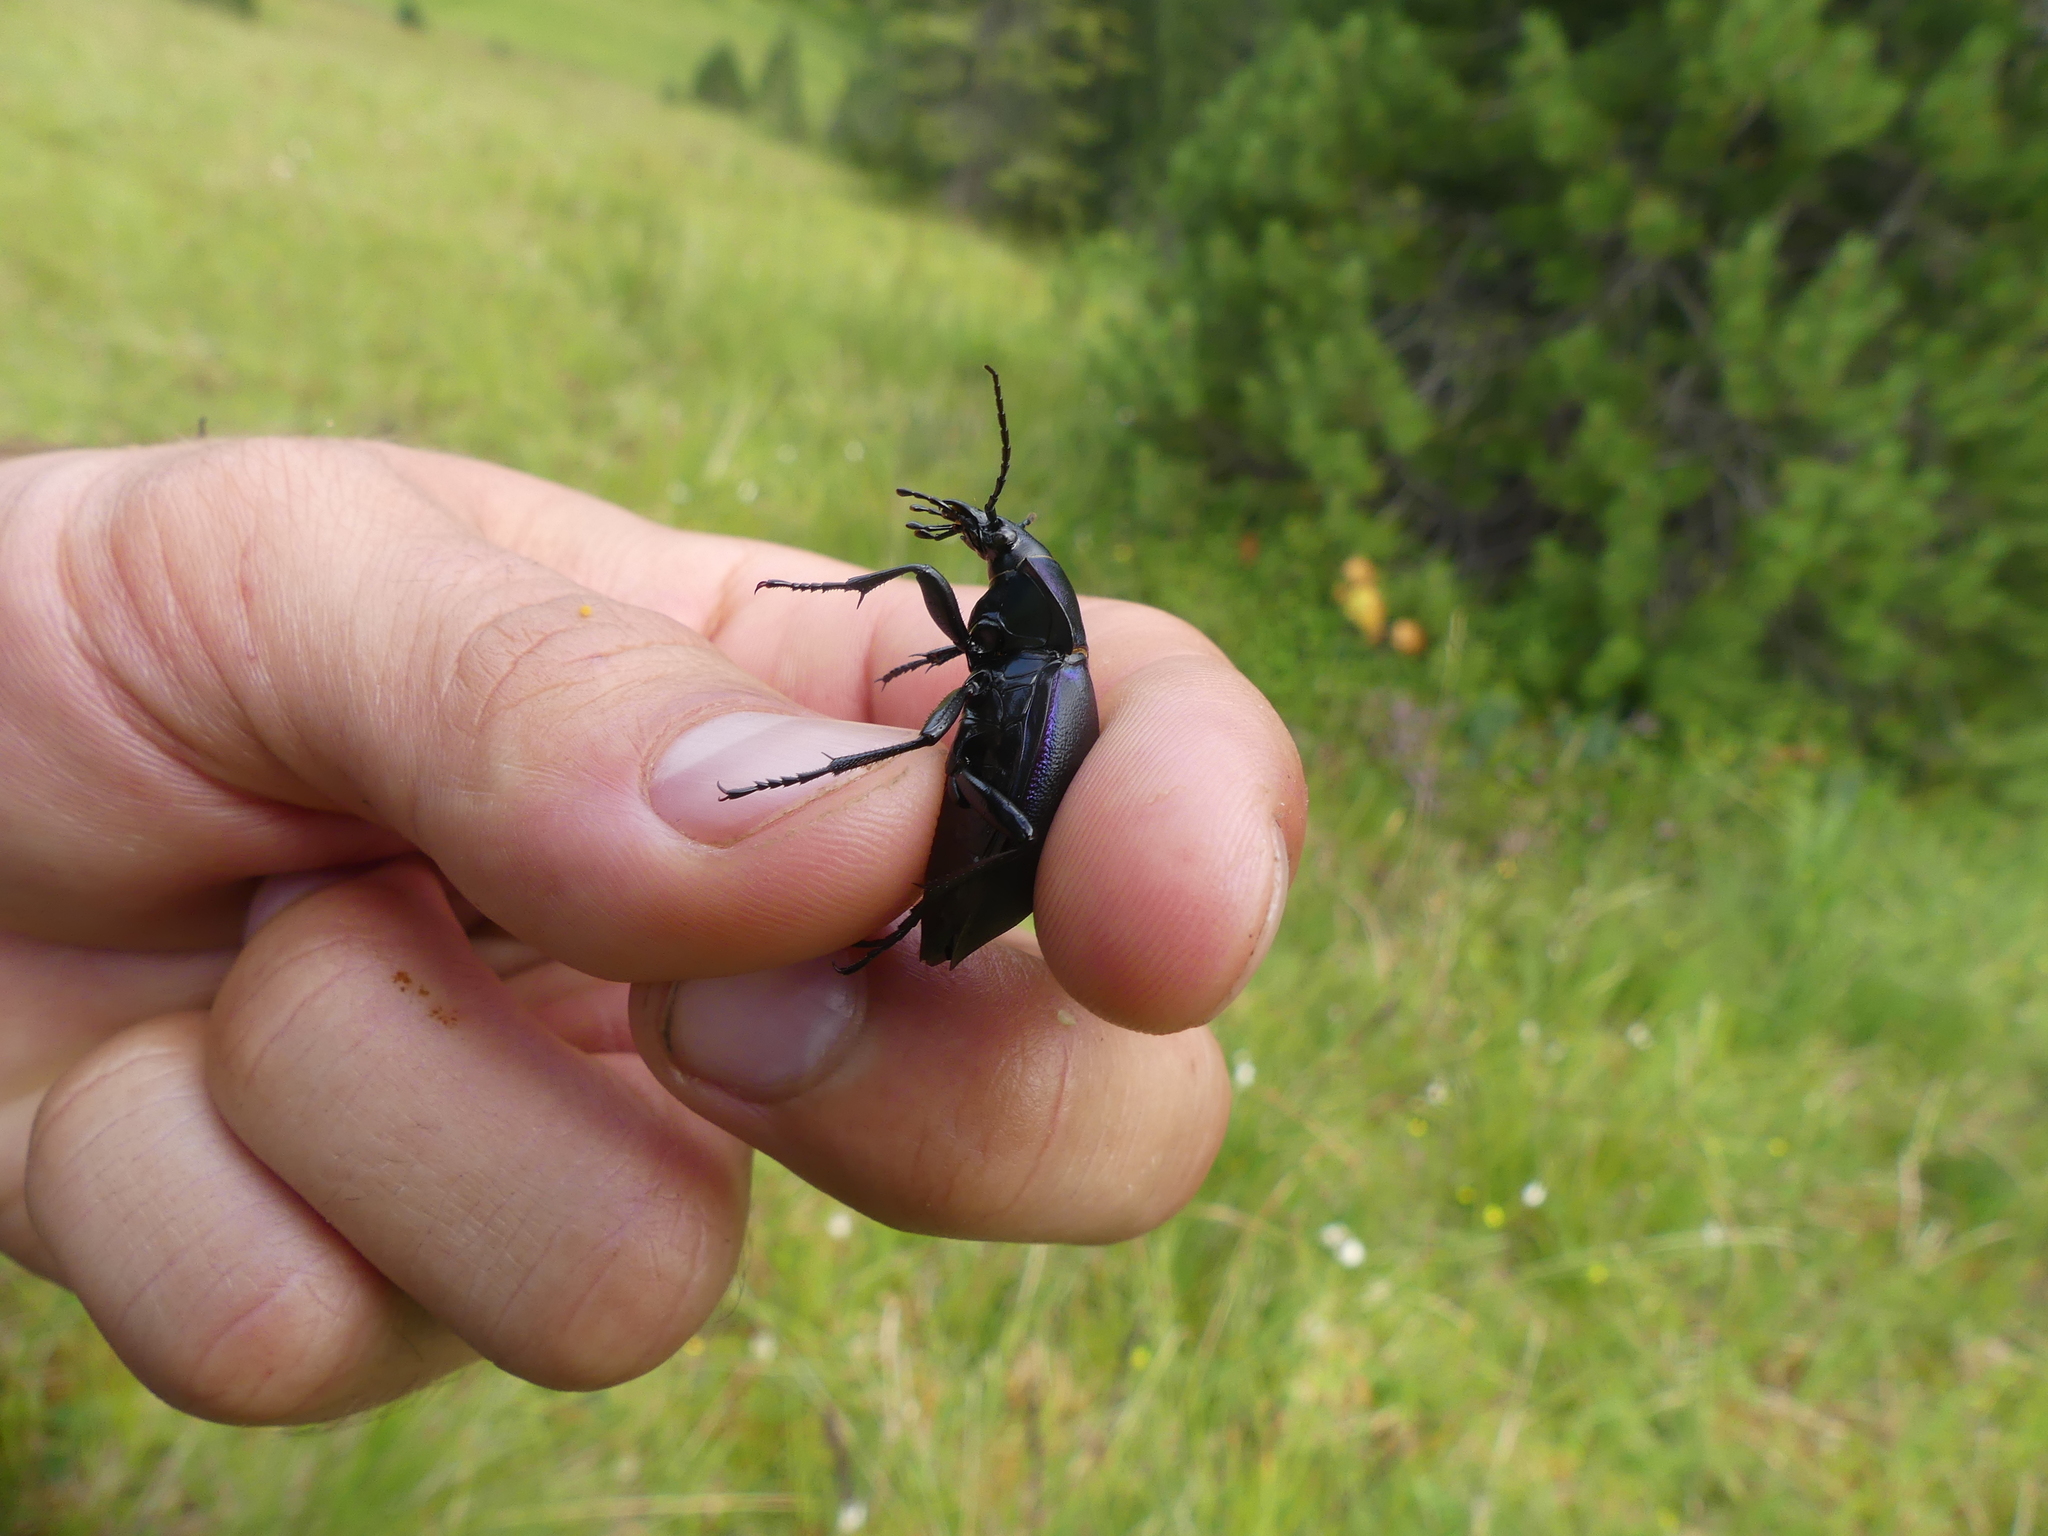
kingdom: Animalia
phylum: Arthropoda
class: Insecta
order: Coleoptera
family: Carabidae
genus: Carabus
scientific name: Carabus violaceus
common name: Violet ground beetle
